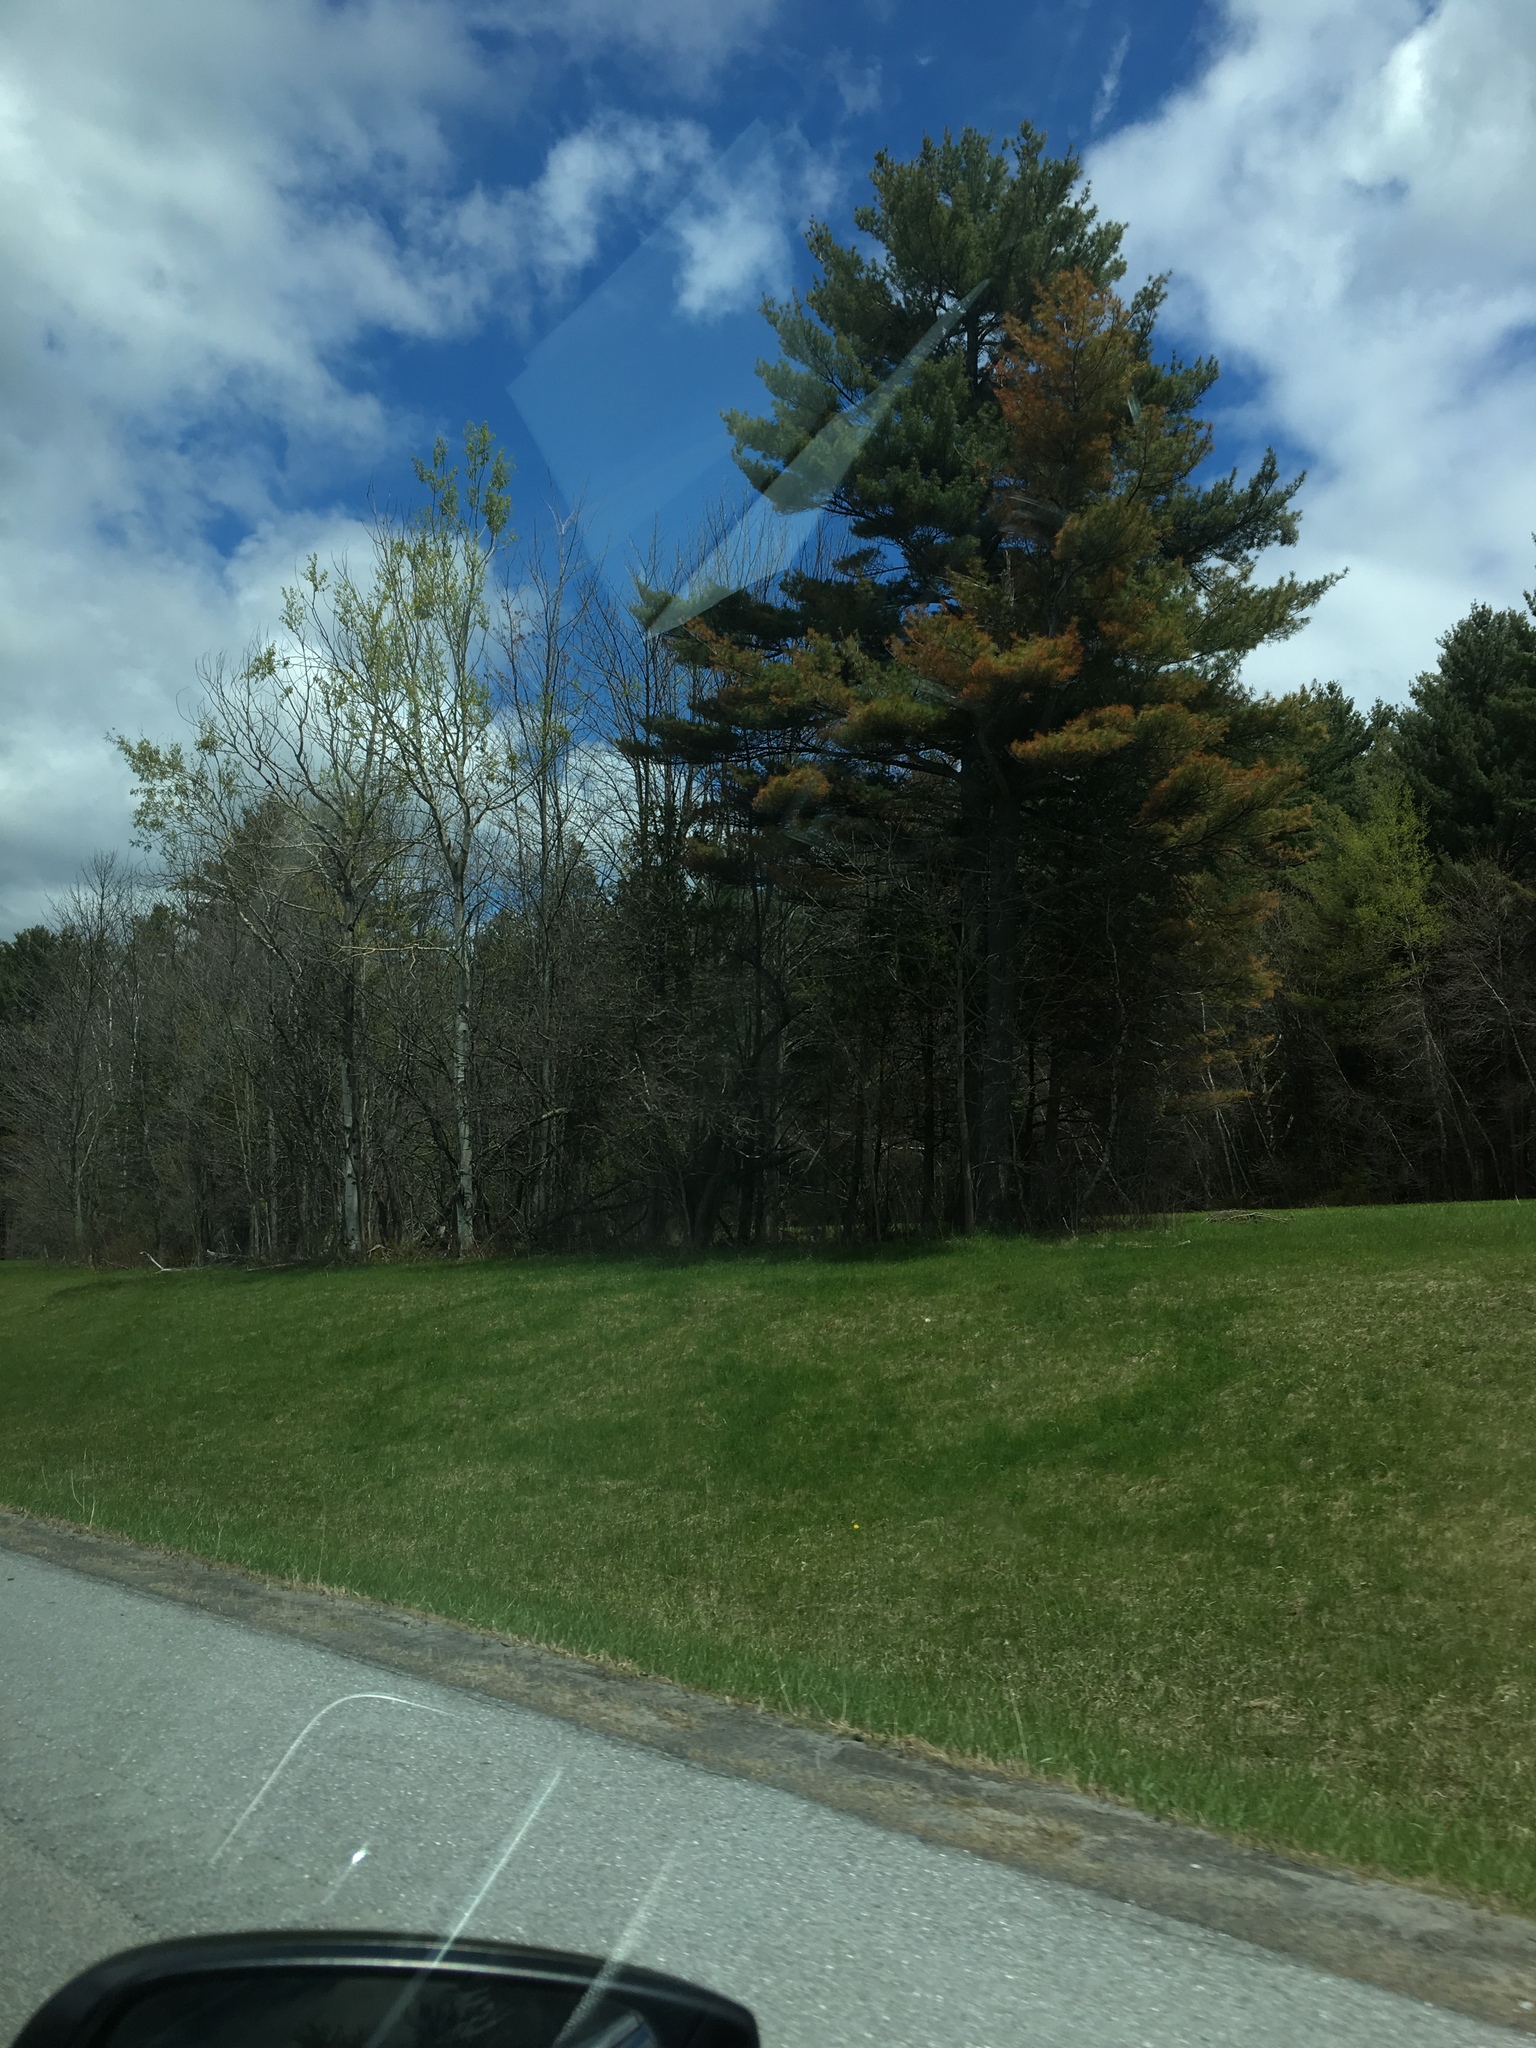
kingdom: Plantae
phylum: Tracheophyta
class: Pinopsida
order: Pinales
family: Pinaceae
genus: Pinus
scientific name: Pinus strobus
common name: Weymouth pine
